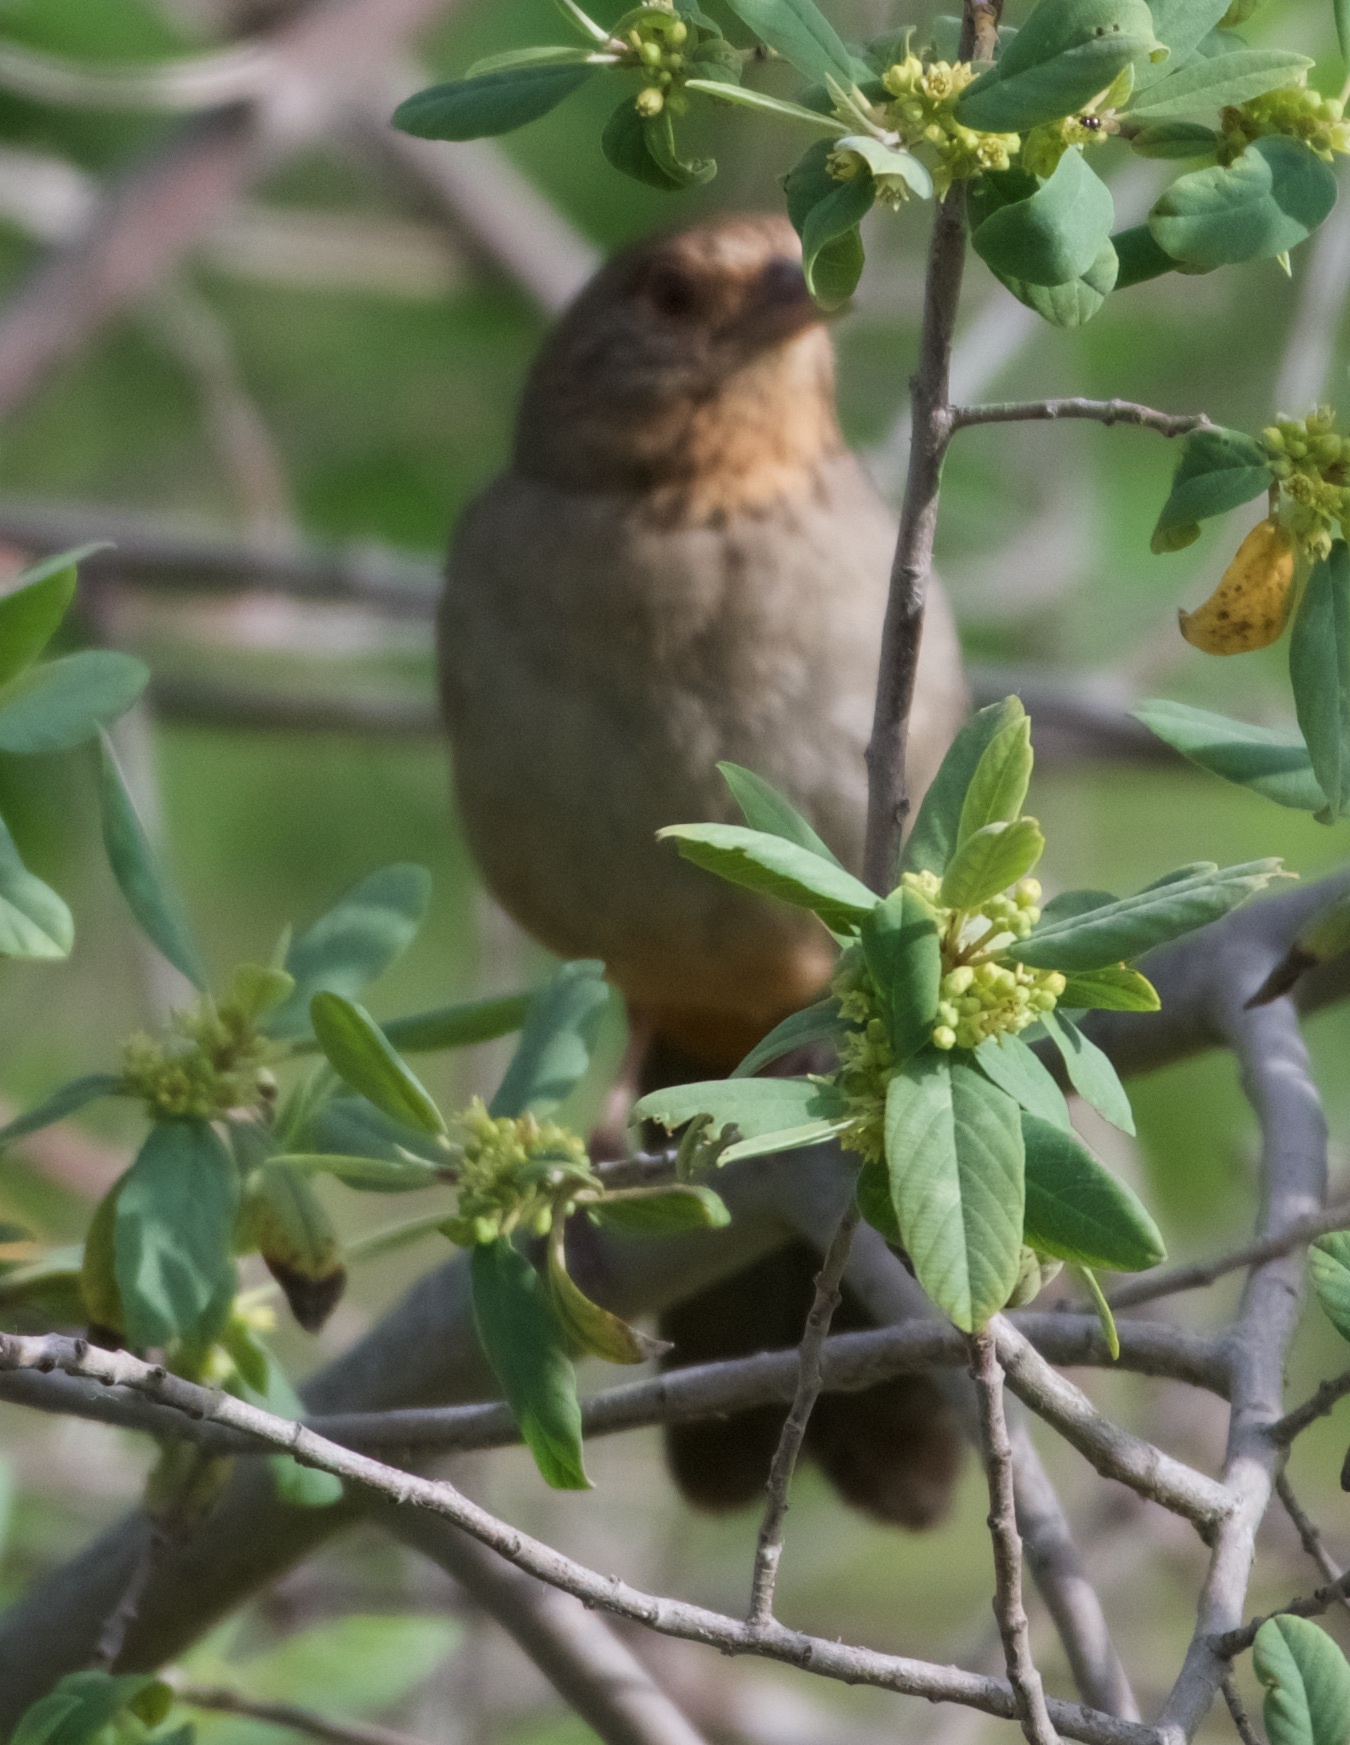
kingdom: Animalia
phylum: Chordata
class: Aves
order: Passeriformes
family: Passerellidae
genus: Melozone
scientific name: Melozone crissalis
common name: California towhee
